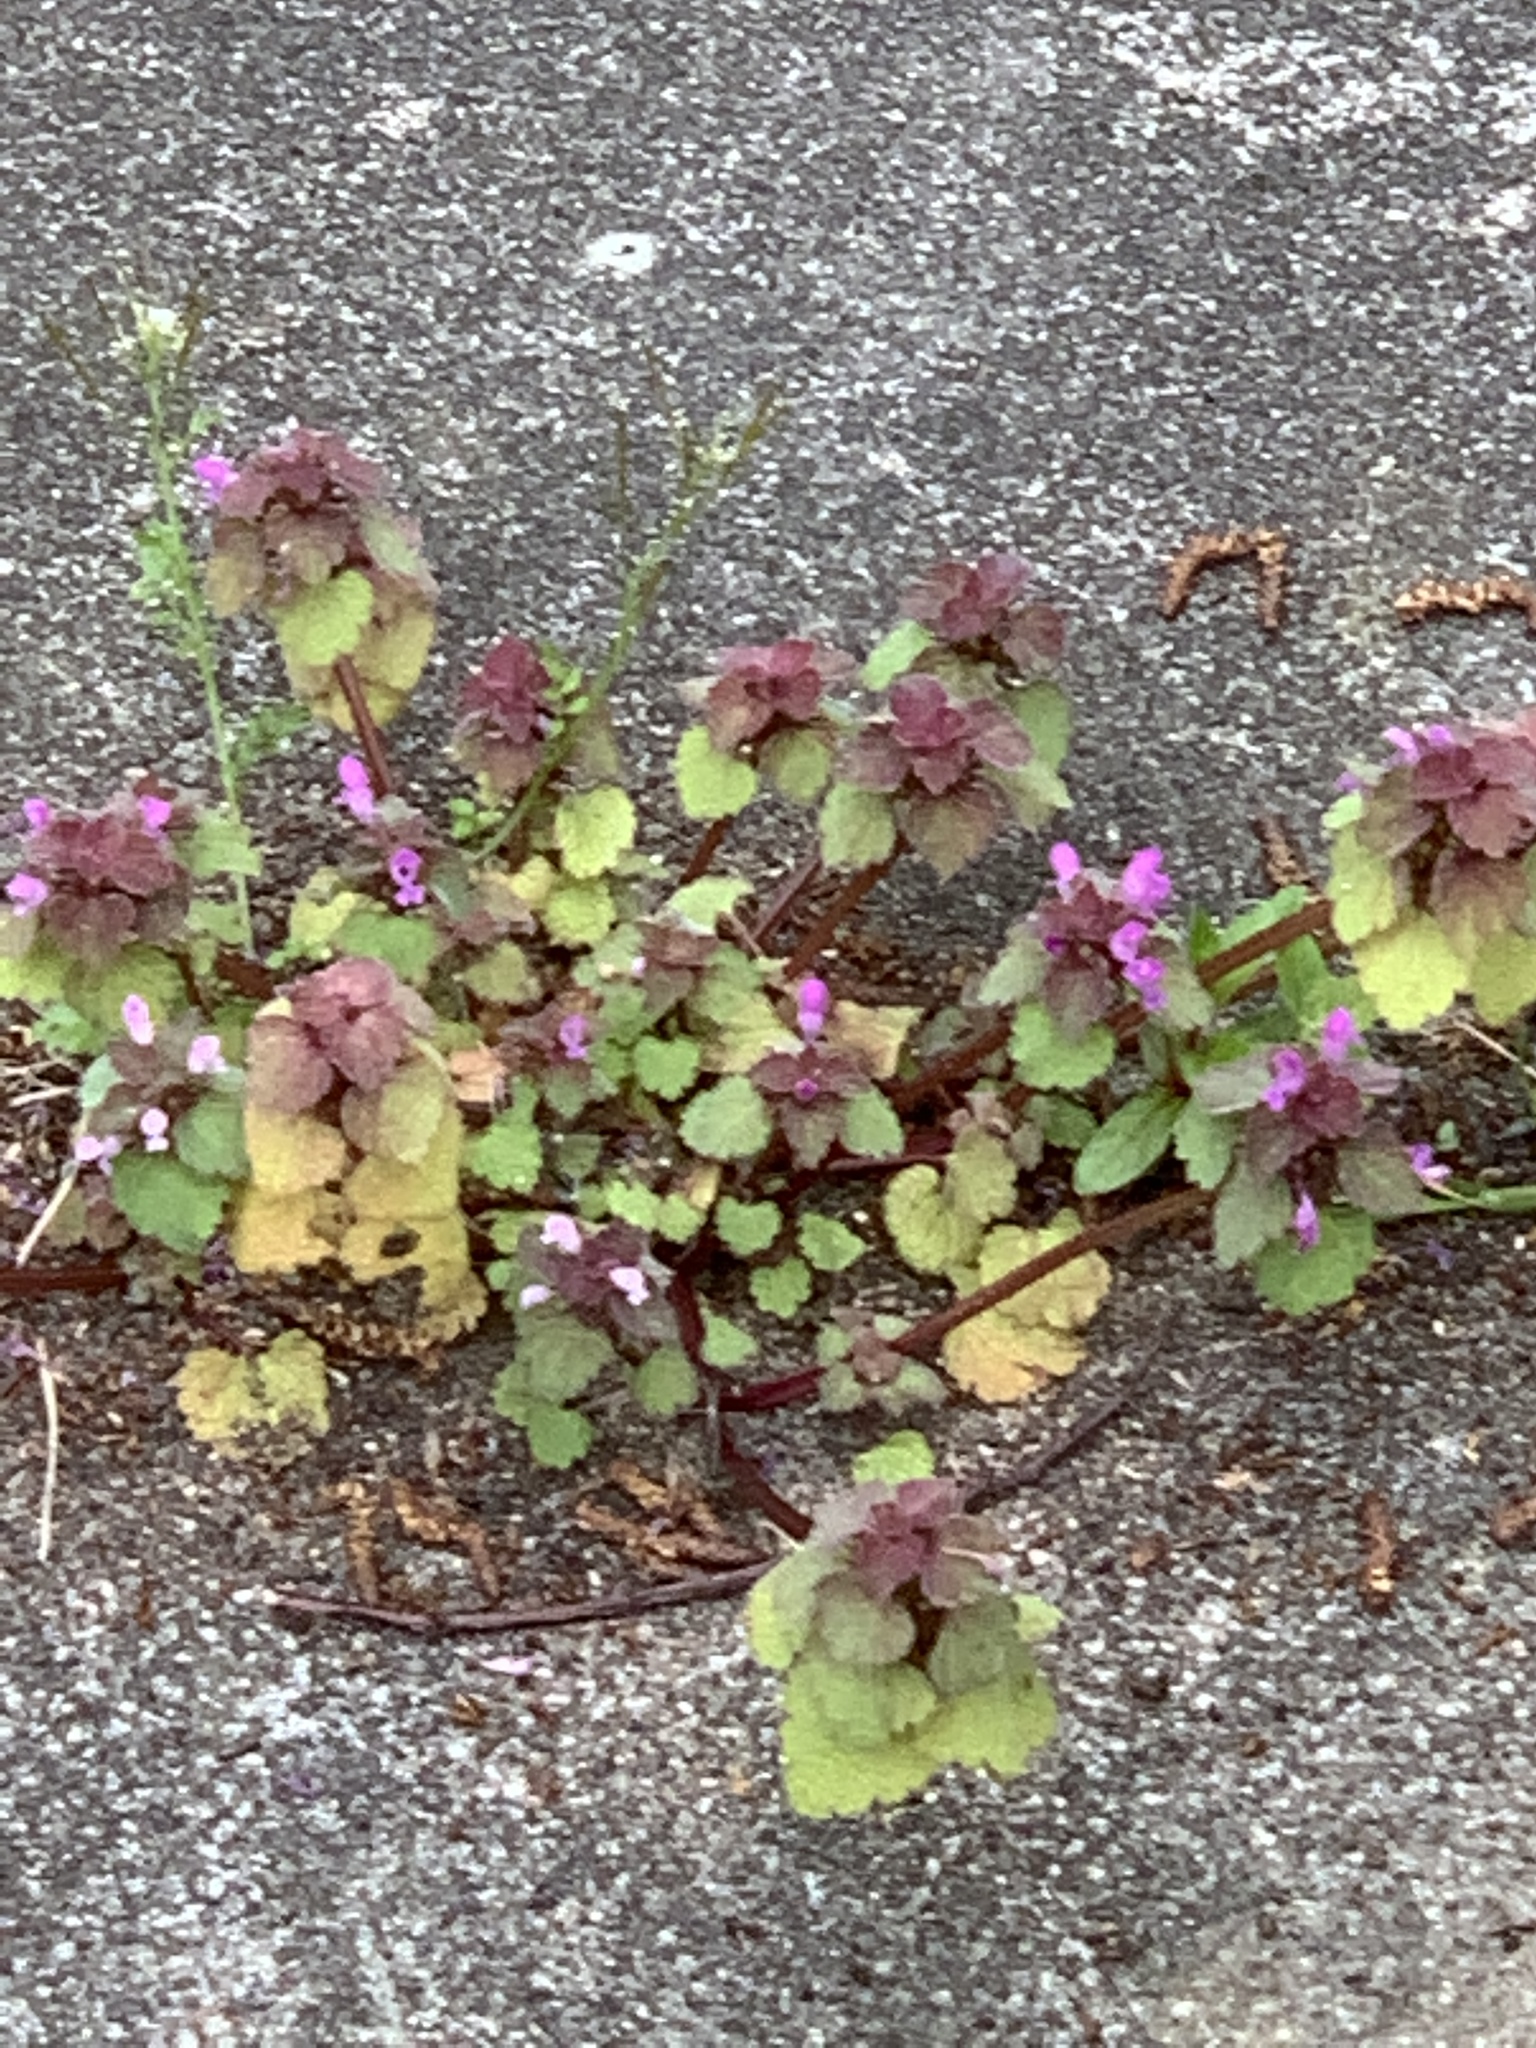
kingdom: Plantae
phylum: Tracheophyta
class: Magnoliopsida
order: Lamiales
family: Lamiaceae
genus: Lamium
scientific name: Lamium purpureum
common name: Red dead-nettle
